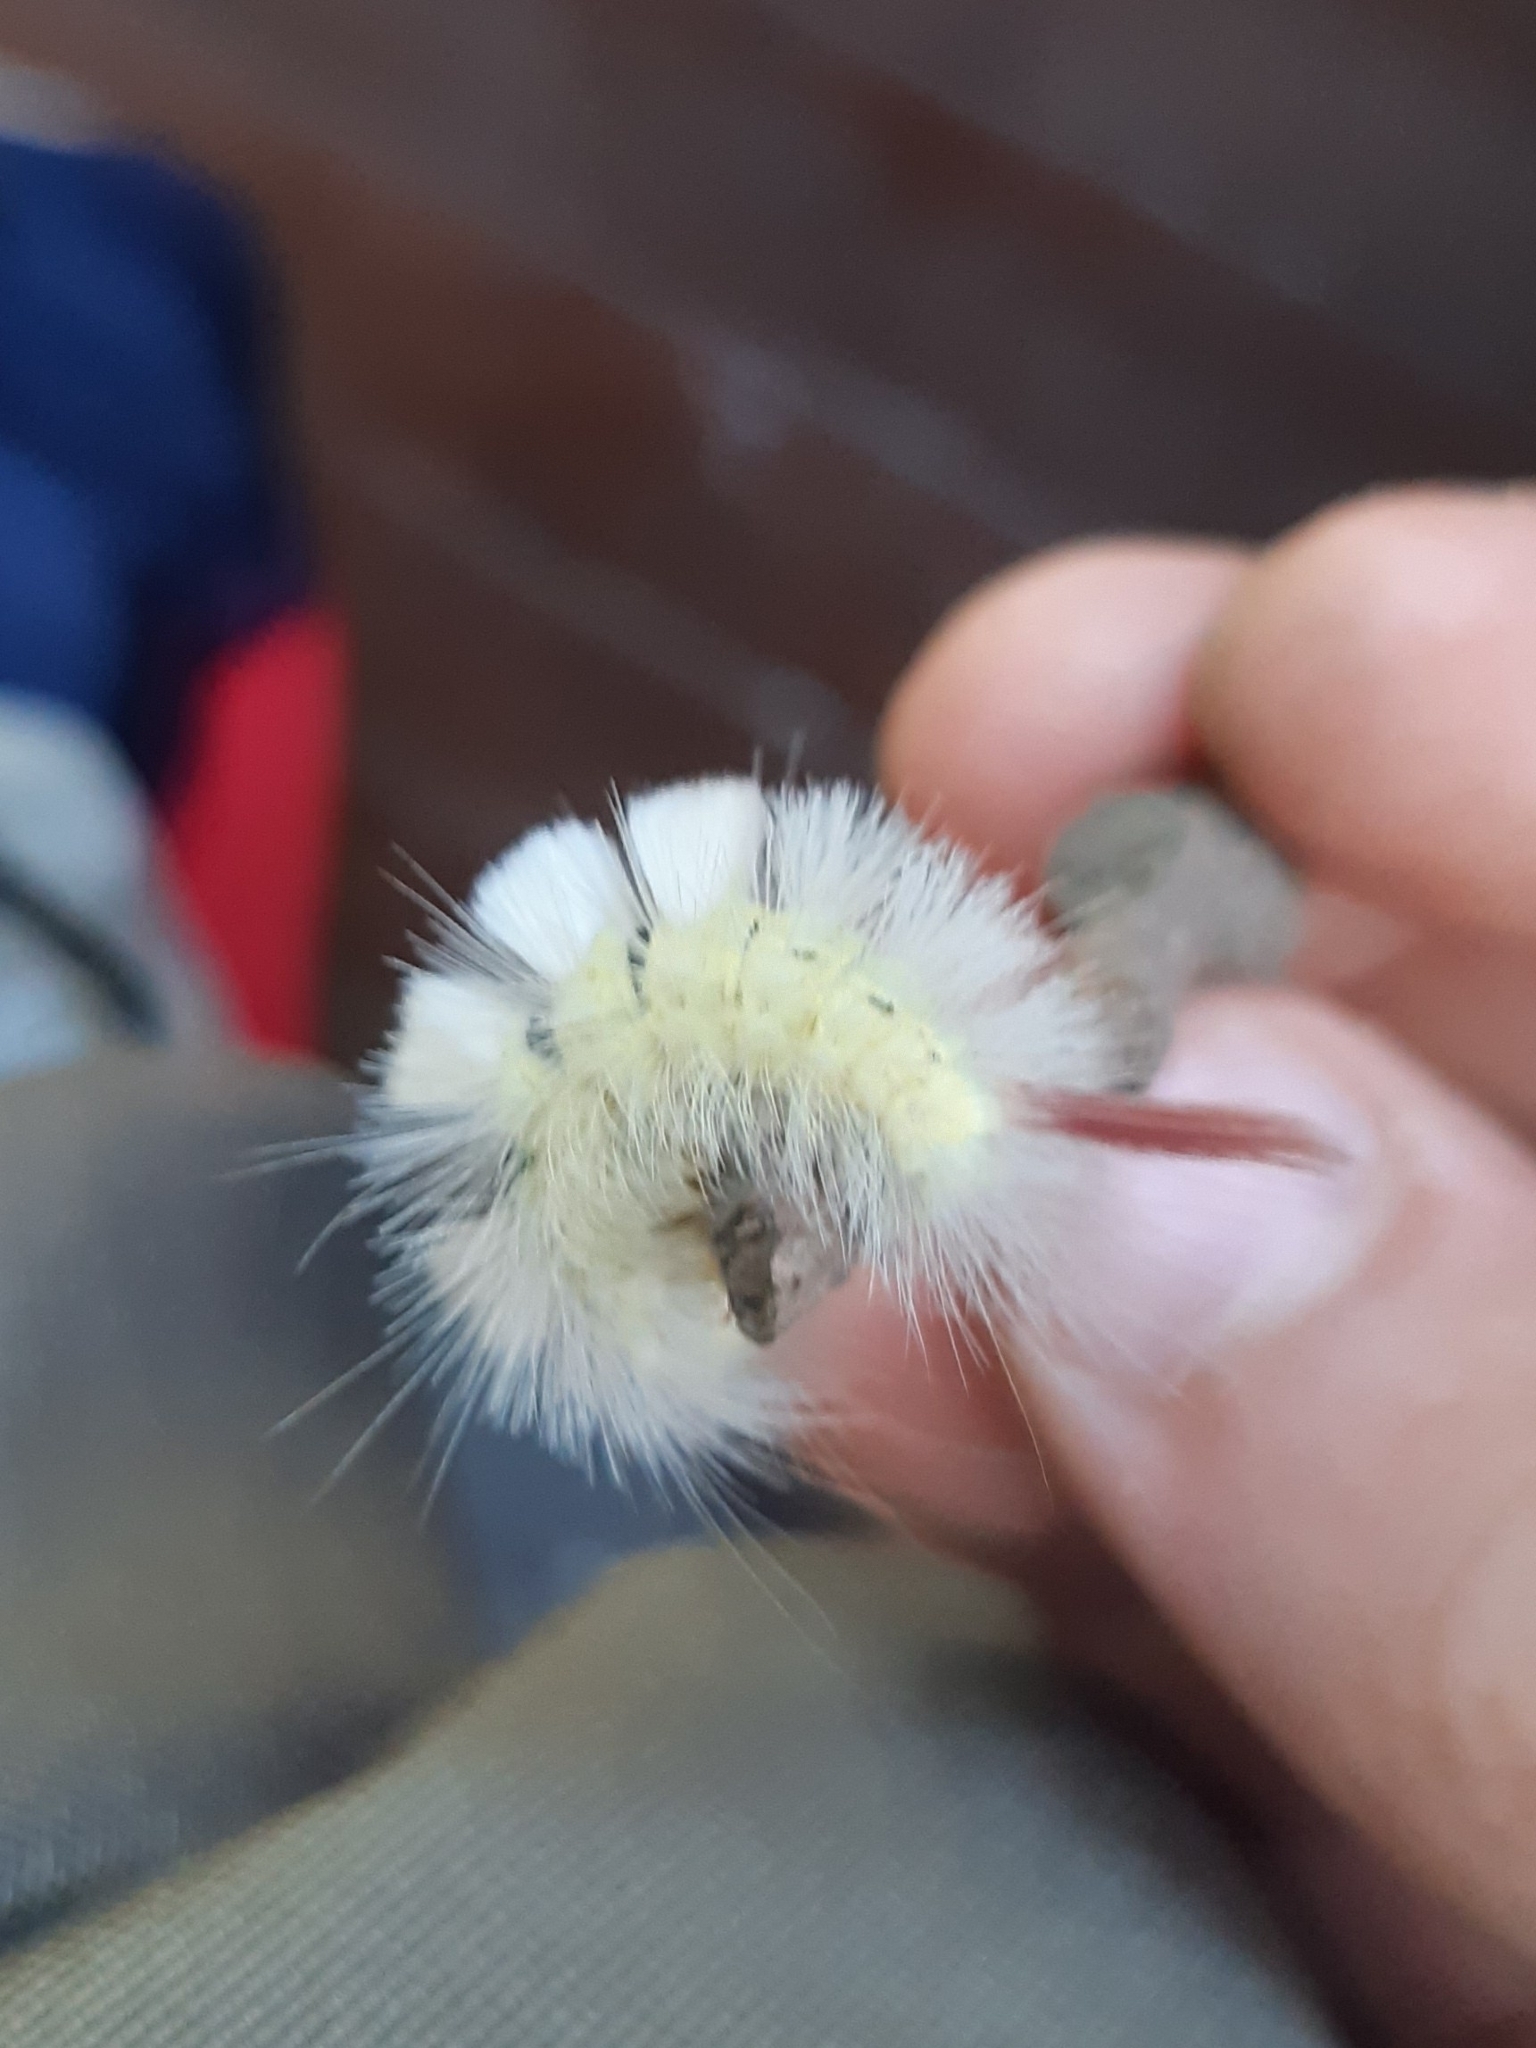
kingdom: Animalia
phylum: Arthropoda
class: Insecta
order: Lepidoptera
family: Erebidae
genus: Calliteara
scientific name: Calliteara pudibunda
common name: Pale tussock
